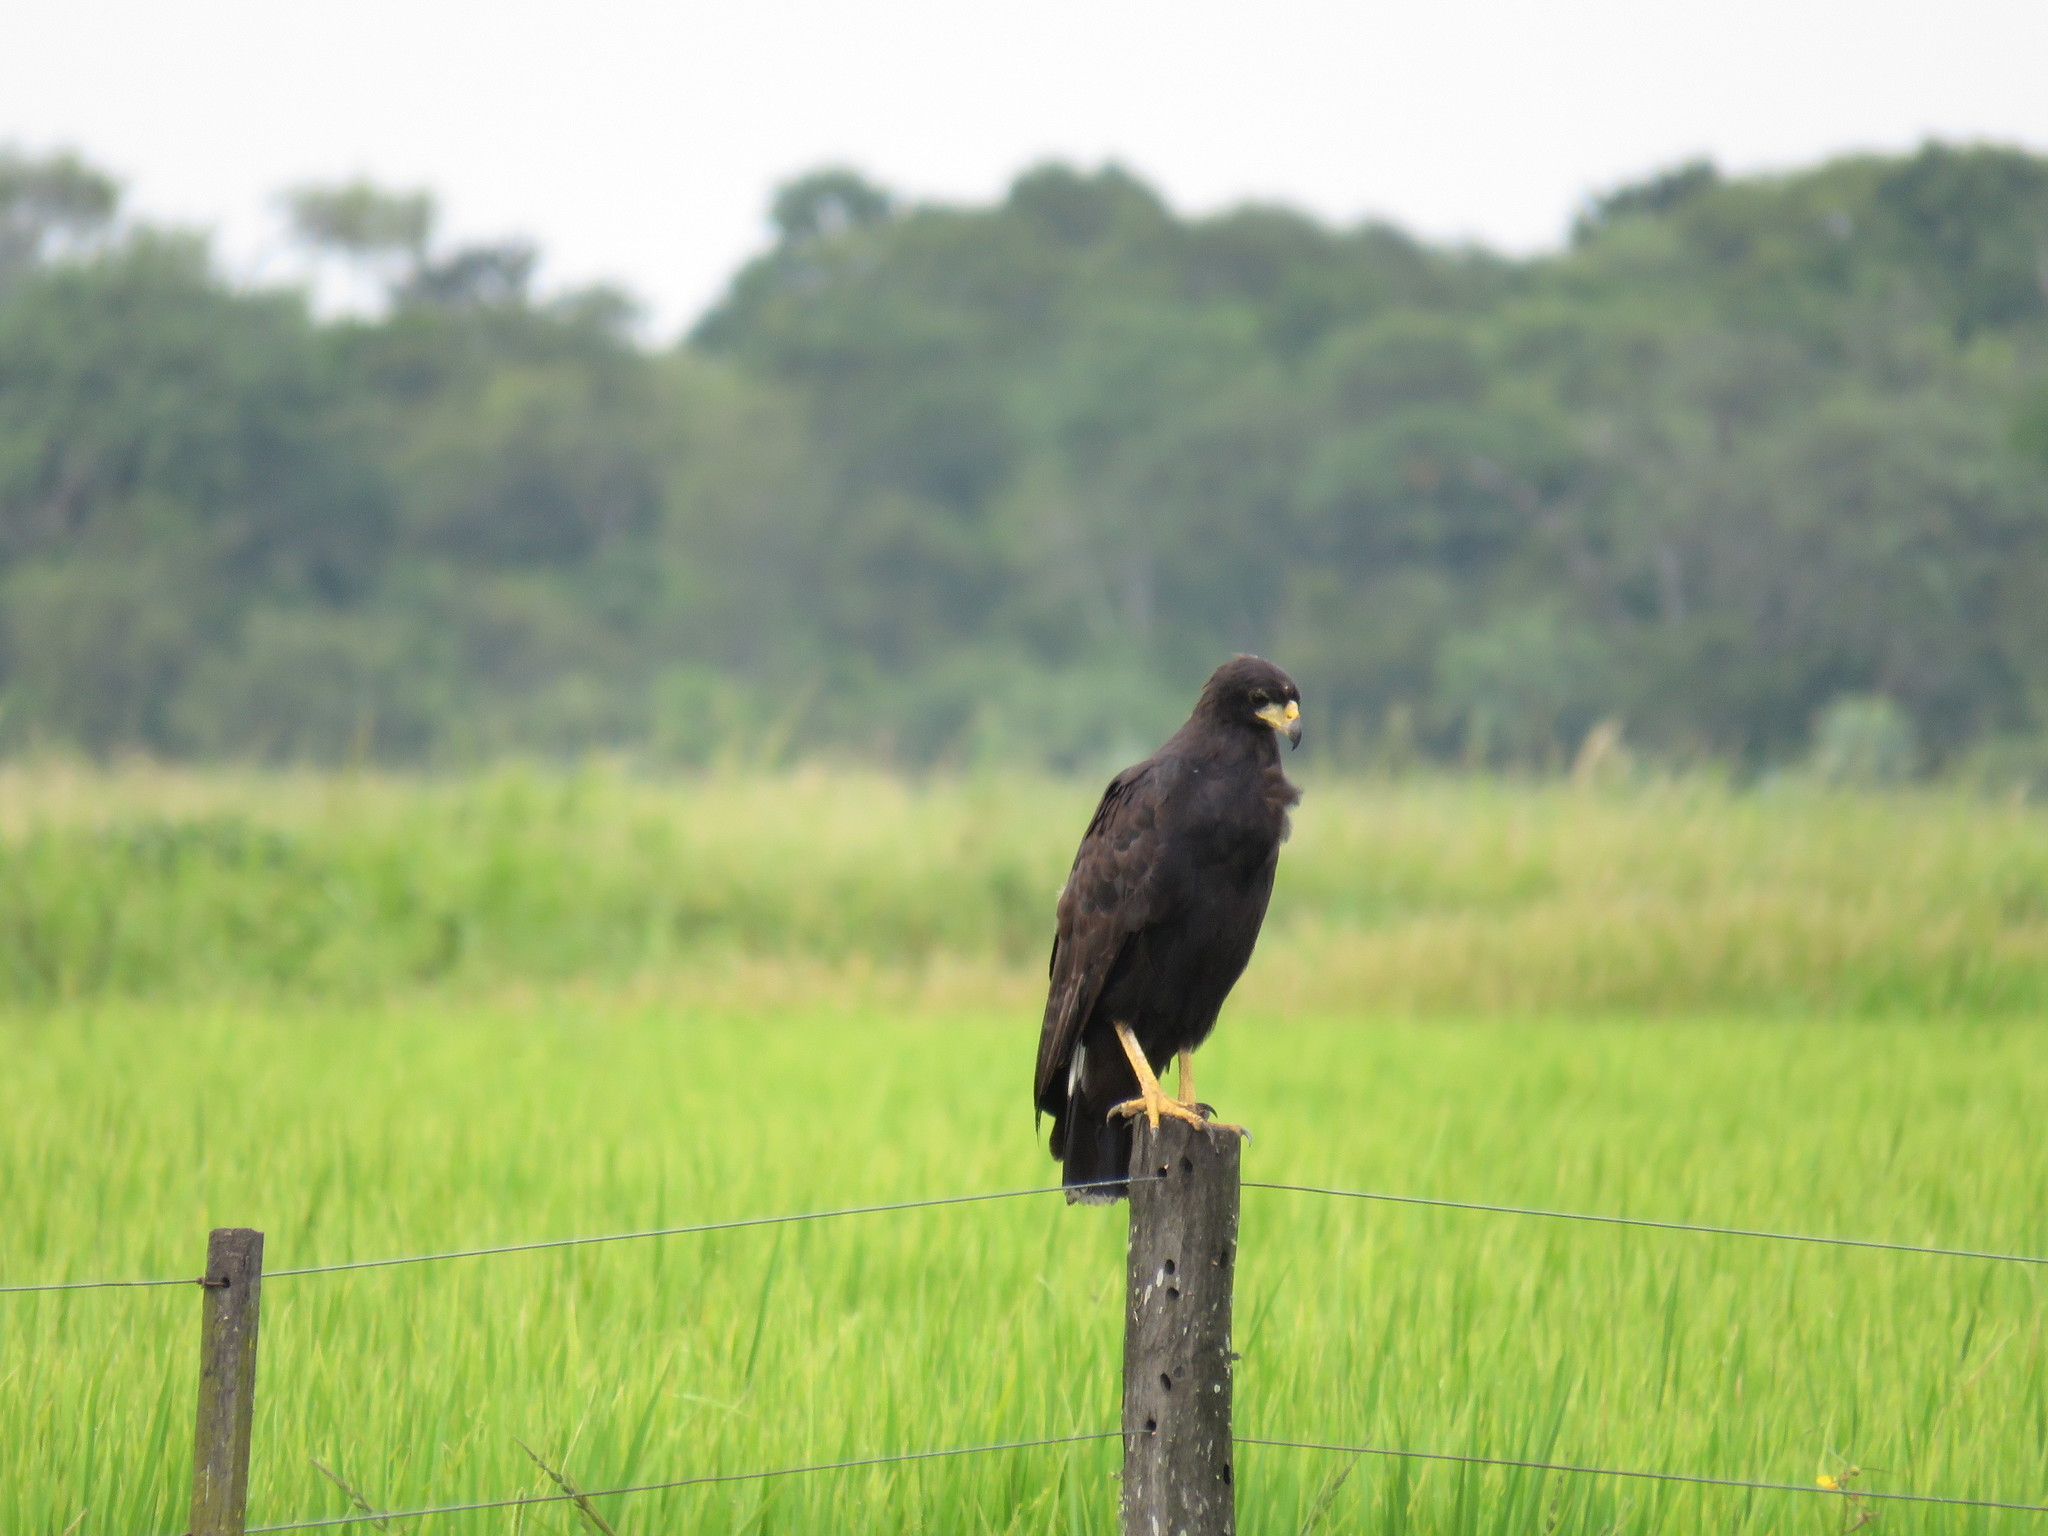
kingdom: Animalia
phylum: Chordata
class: Aves
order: Accipitriformes
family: Accipitridae
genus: Buteogallus
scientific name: Buteogallus urubitinga
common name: Great black hawk
